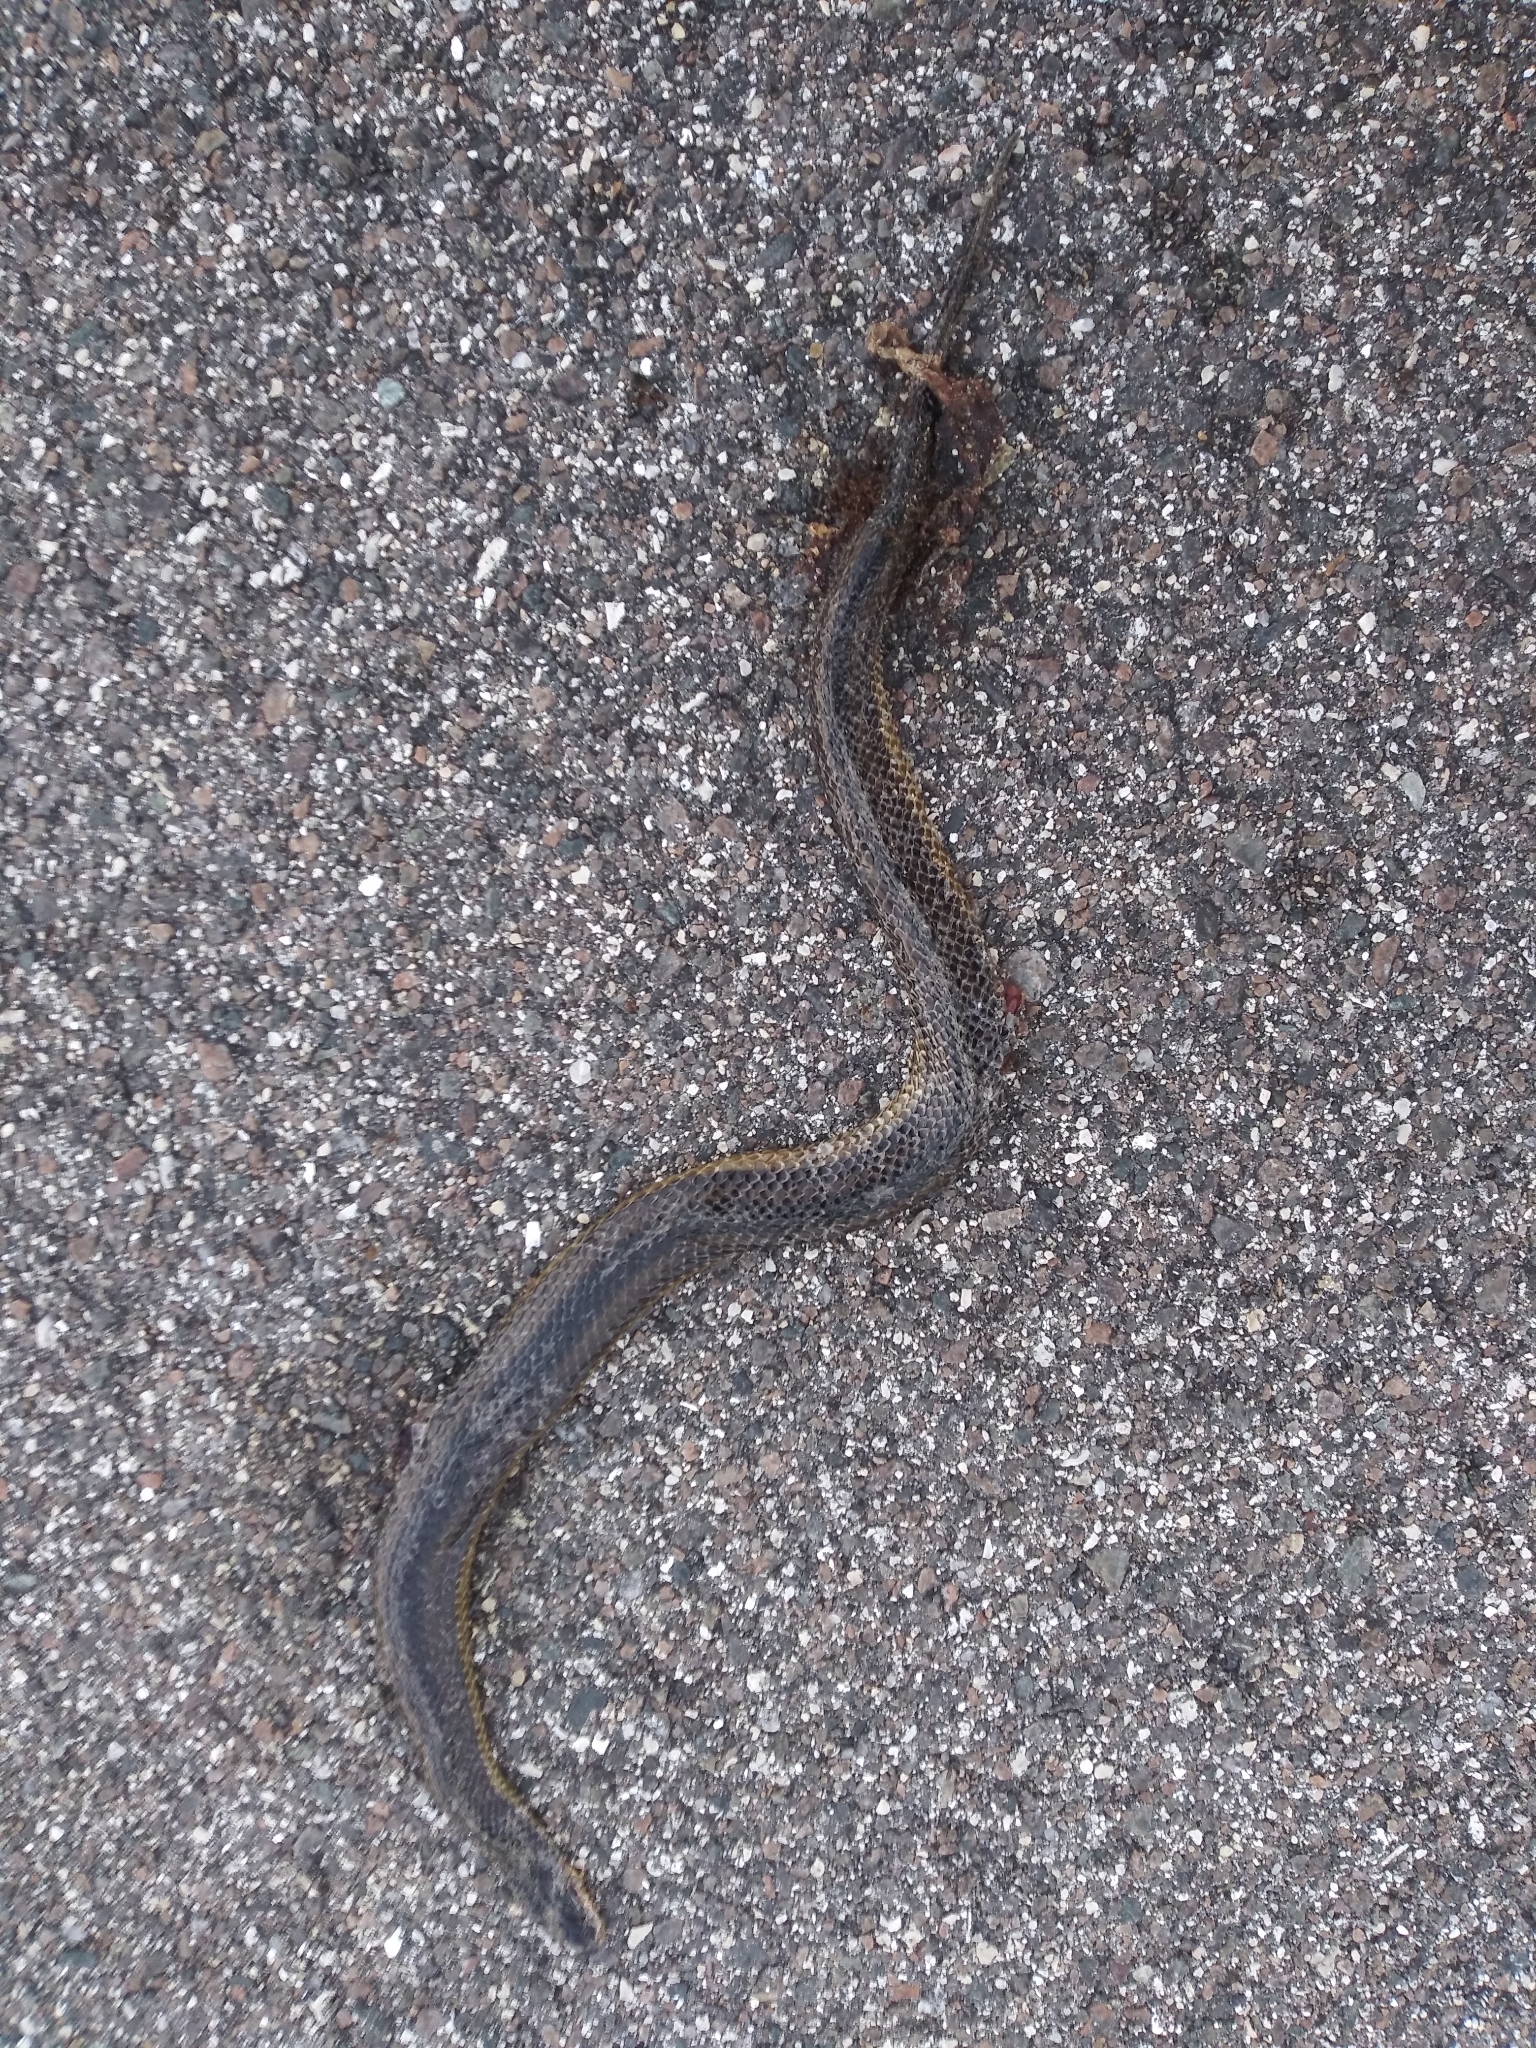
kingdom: Animalia
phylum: Chordata
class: Squamata
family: Colubridae
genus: Liodytes
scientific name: Liodytes alleni
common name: Striped crayfish snake
